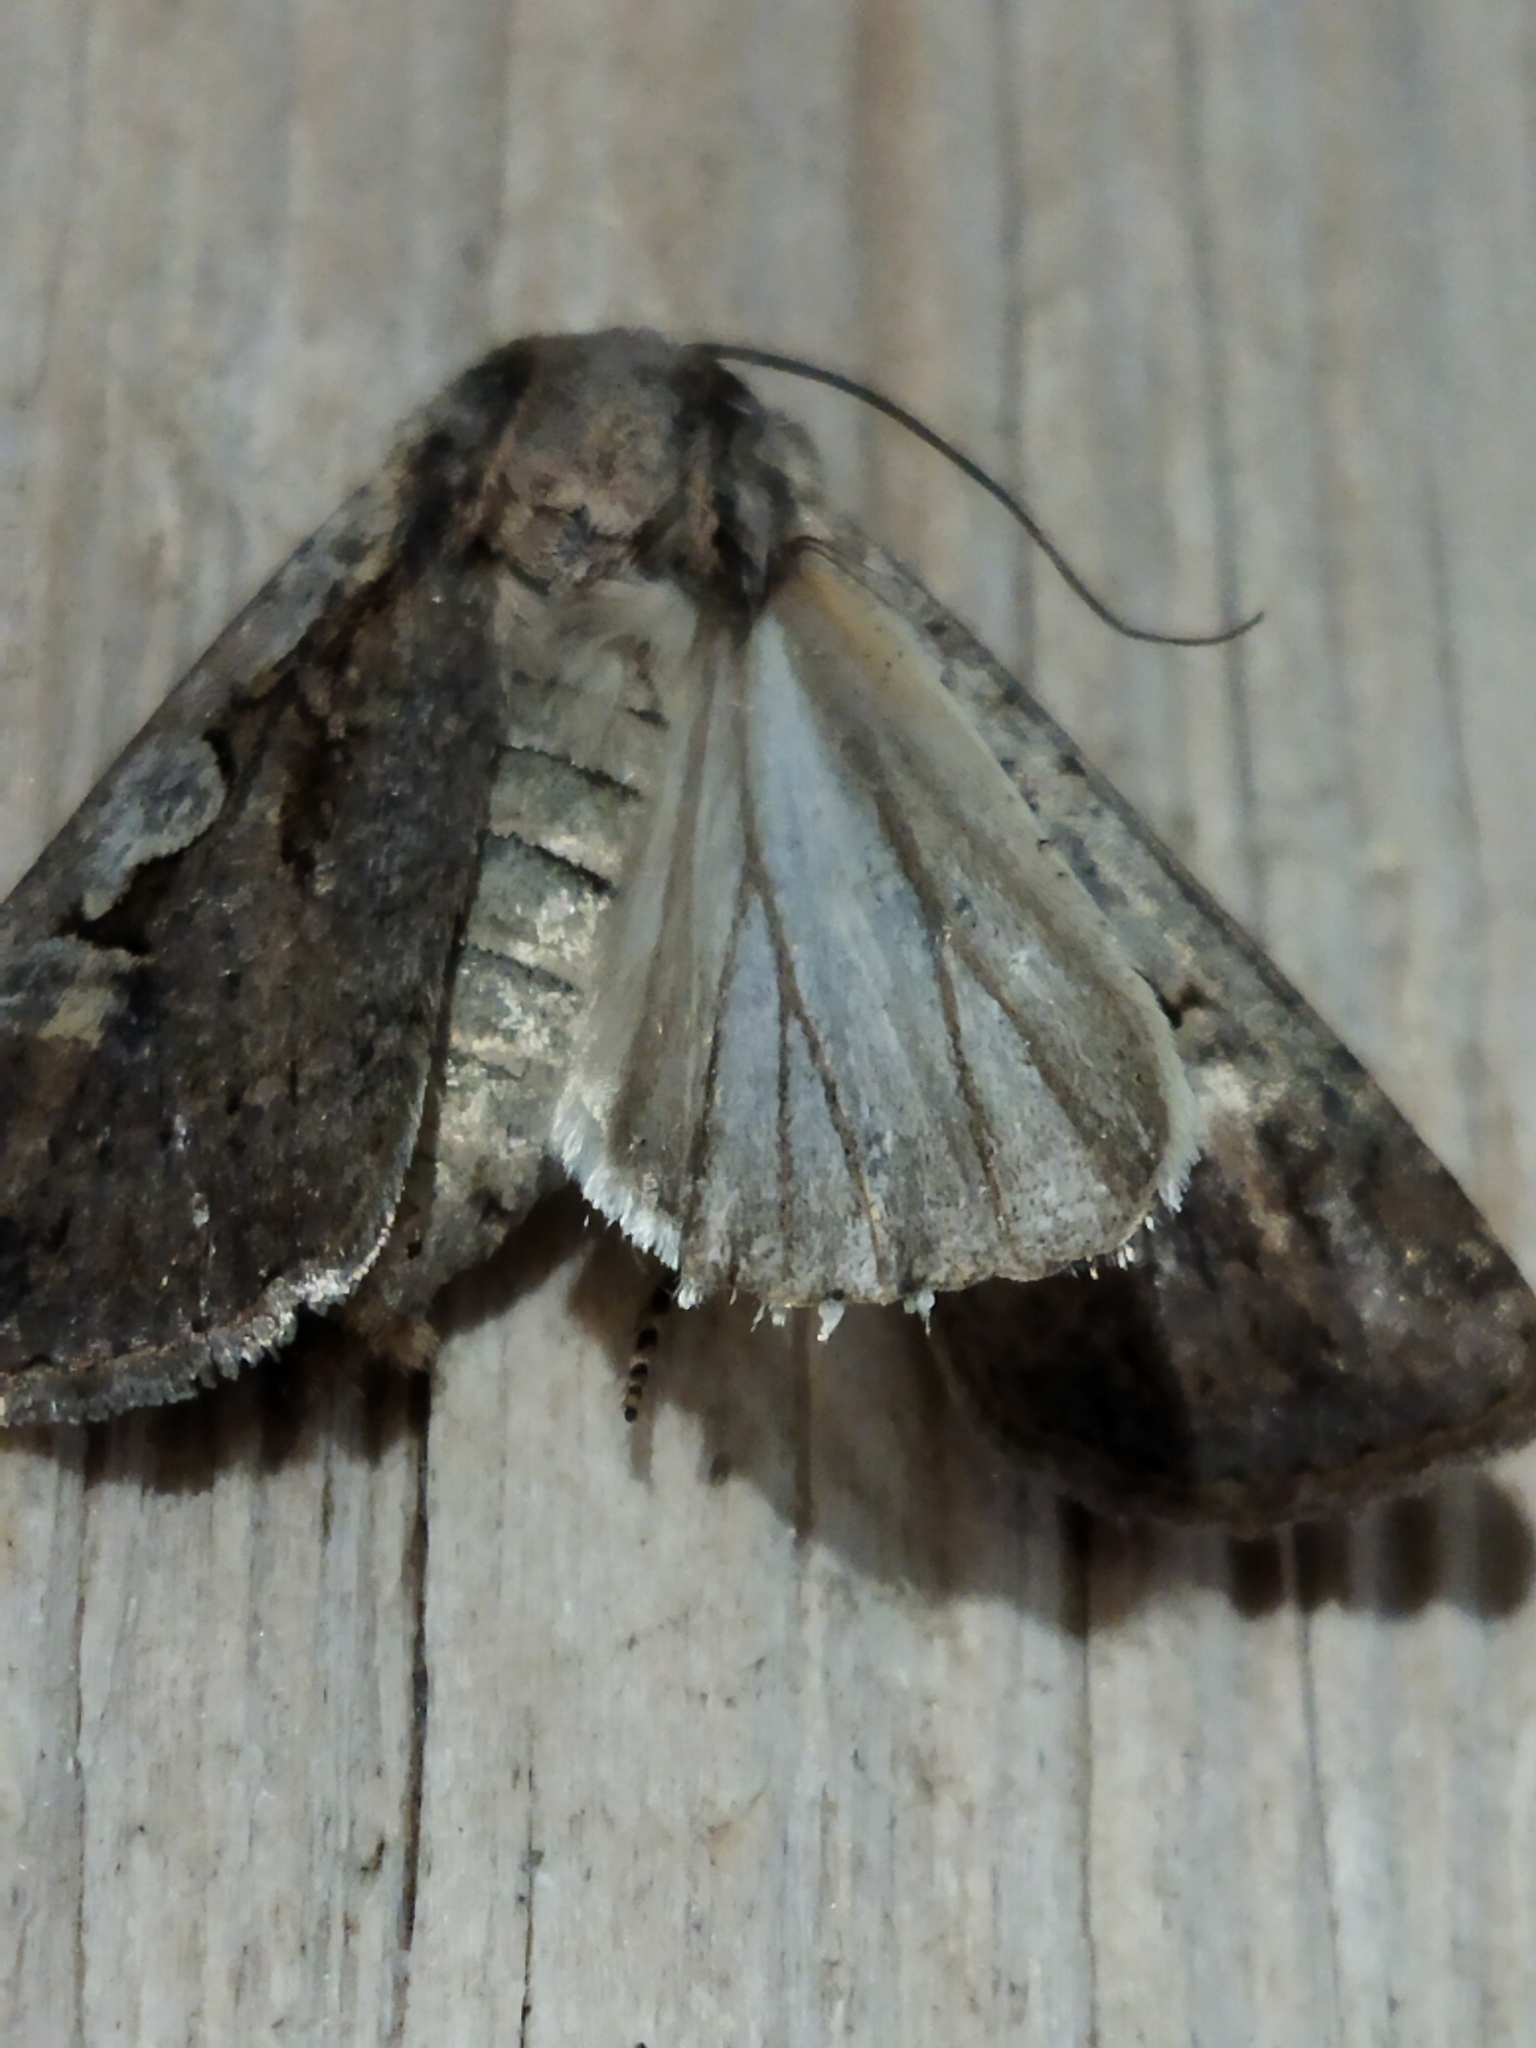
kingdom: Animalia
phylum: Arthropoda
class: Insecta
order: Lepidoptera
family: Noctuidae
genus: Euxoa
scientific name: Euxoa temera
